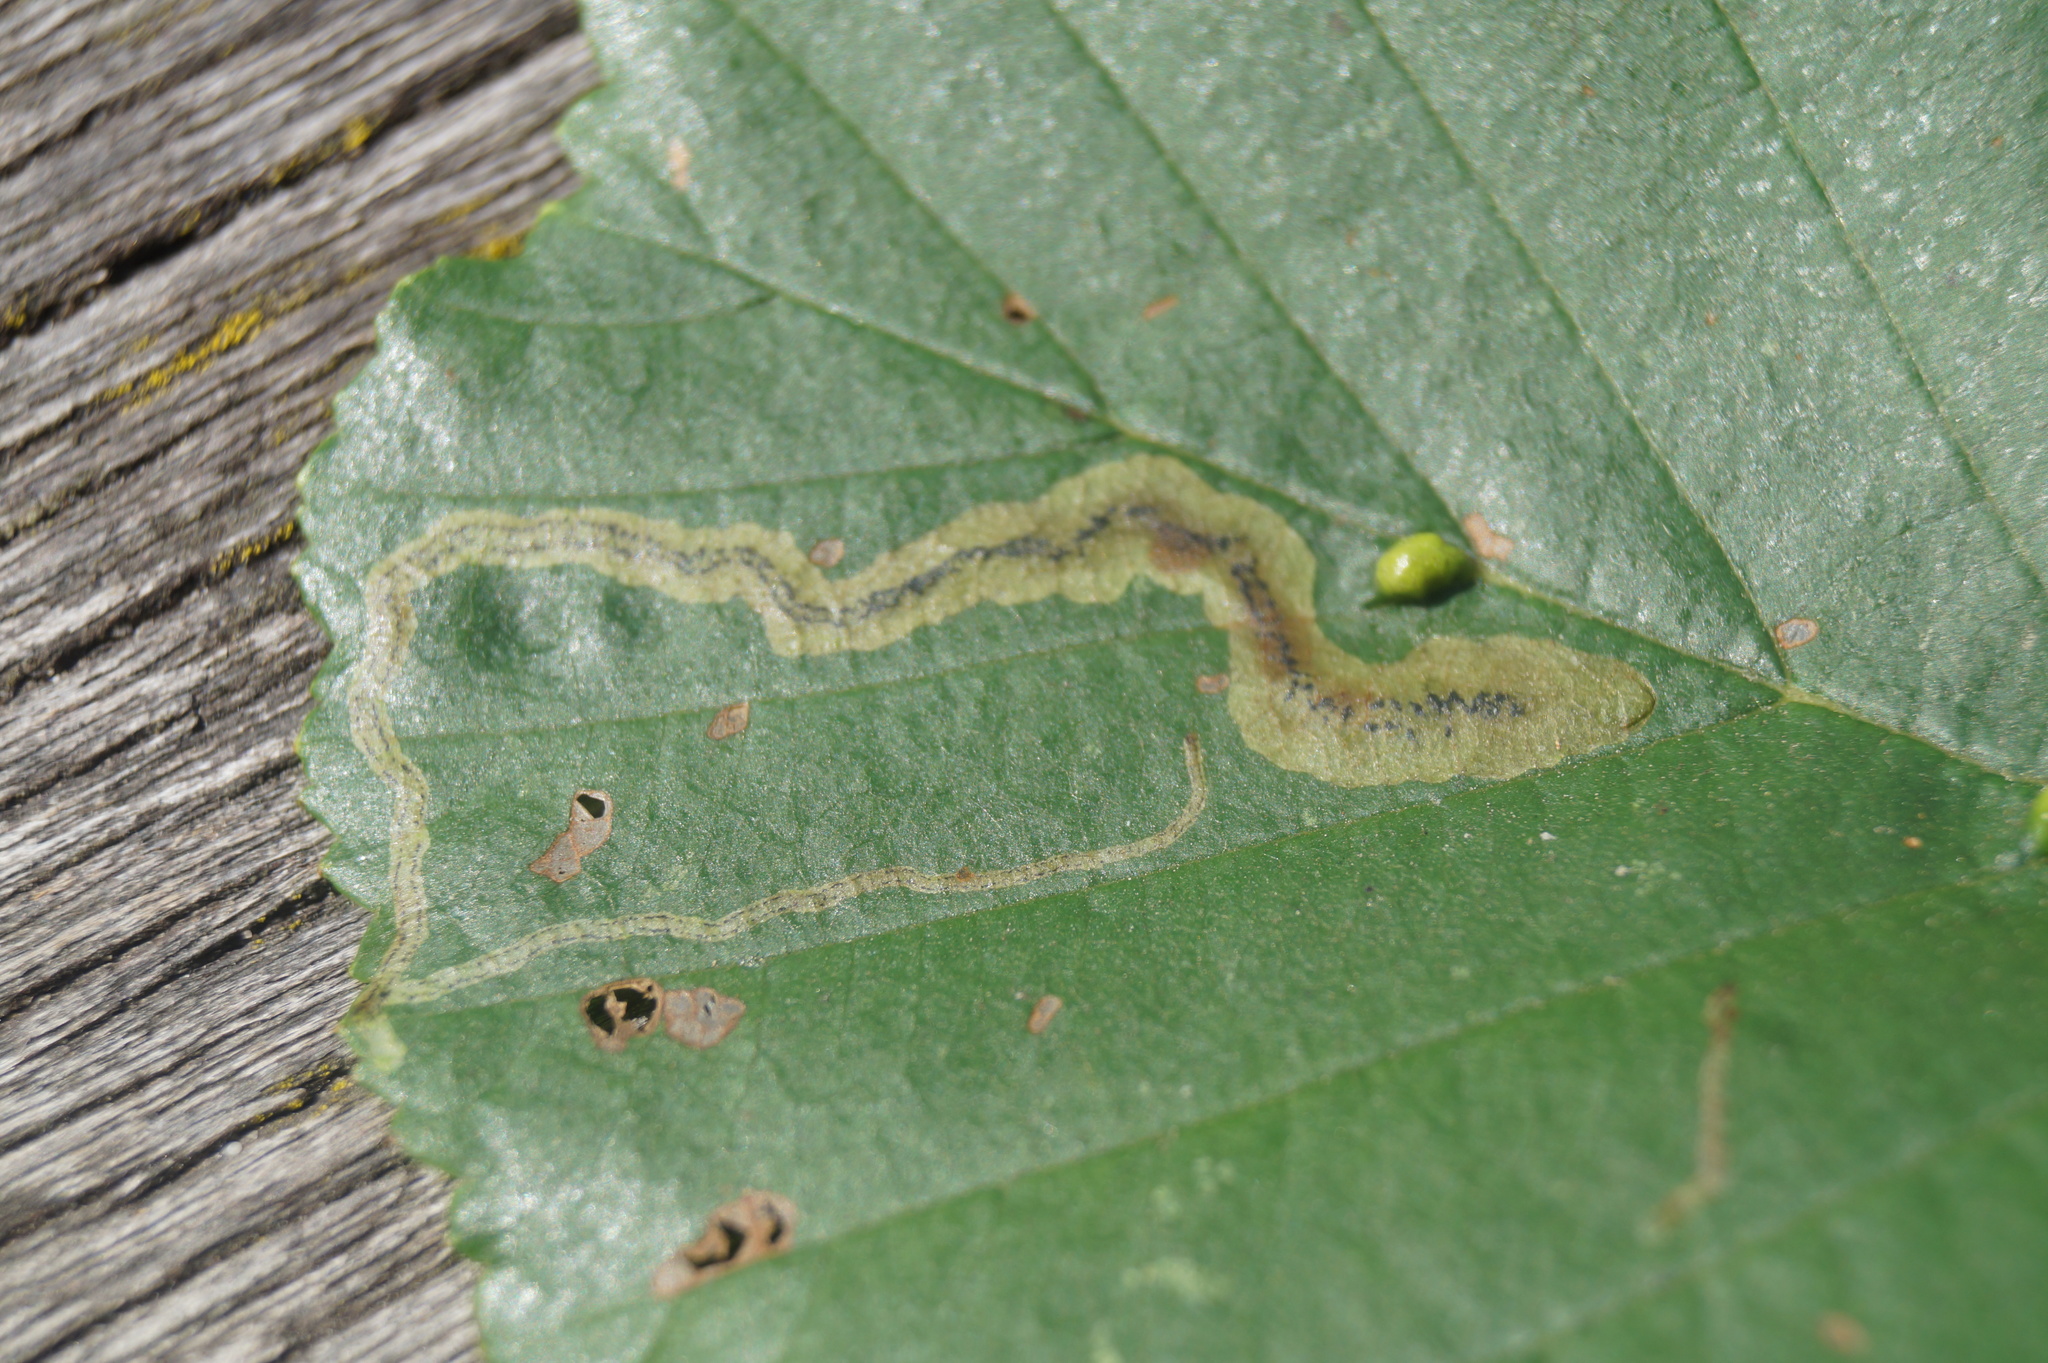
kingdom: Animalia
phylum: Arthropoda
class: Insecta
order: Diptera
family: Agromyzidae
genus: Agromyza
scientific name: Agromyza alnivora
